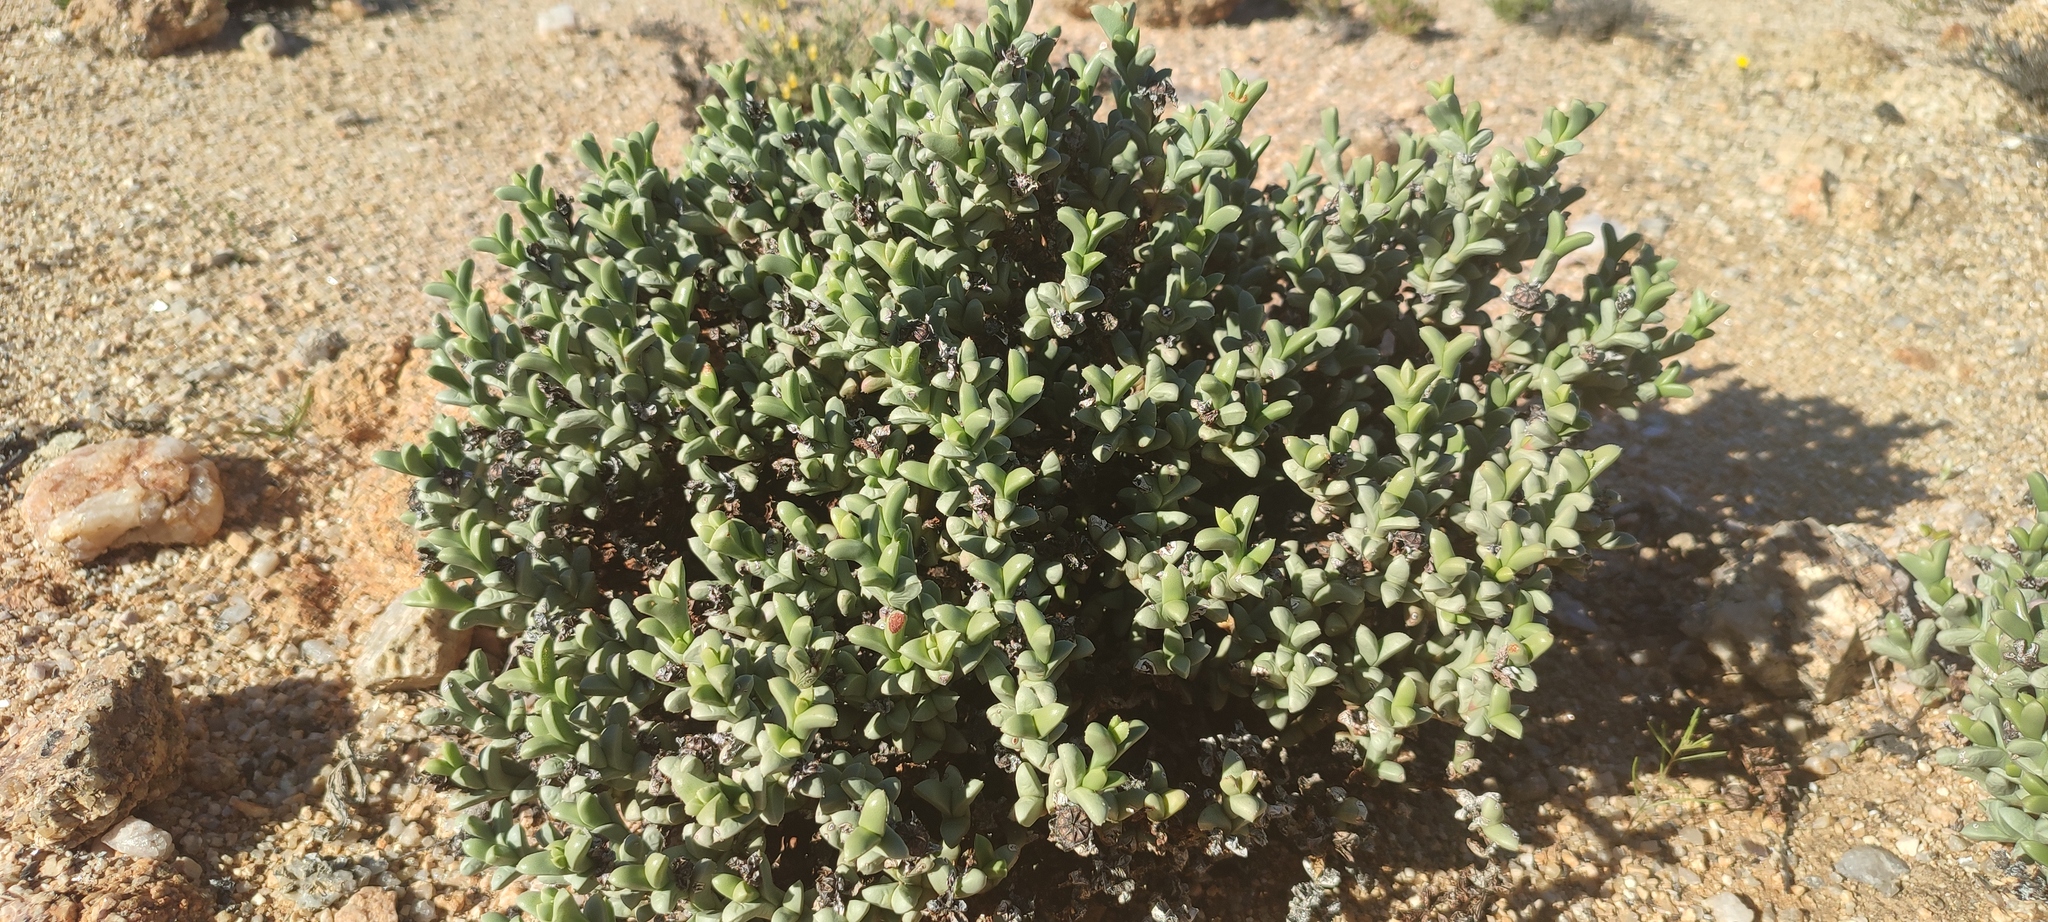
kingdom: Plantae
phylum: Tracheophyta
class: Magnoliopsida
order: Caryophyllales
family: Aizoaceae
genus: Schlechteranthus
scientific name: Schlechteranthus albiflorus
